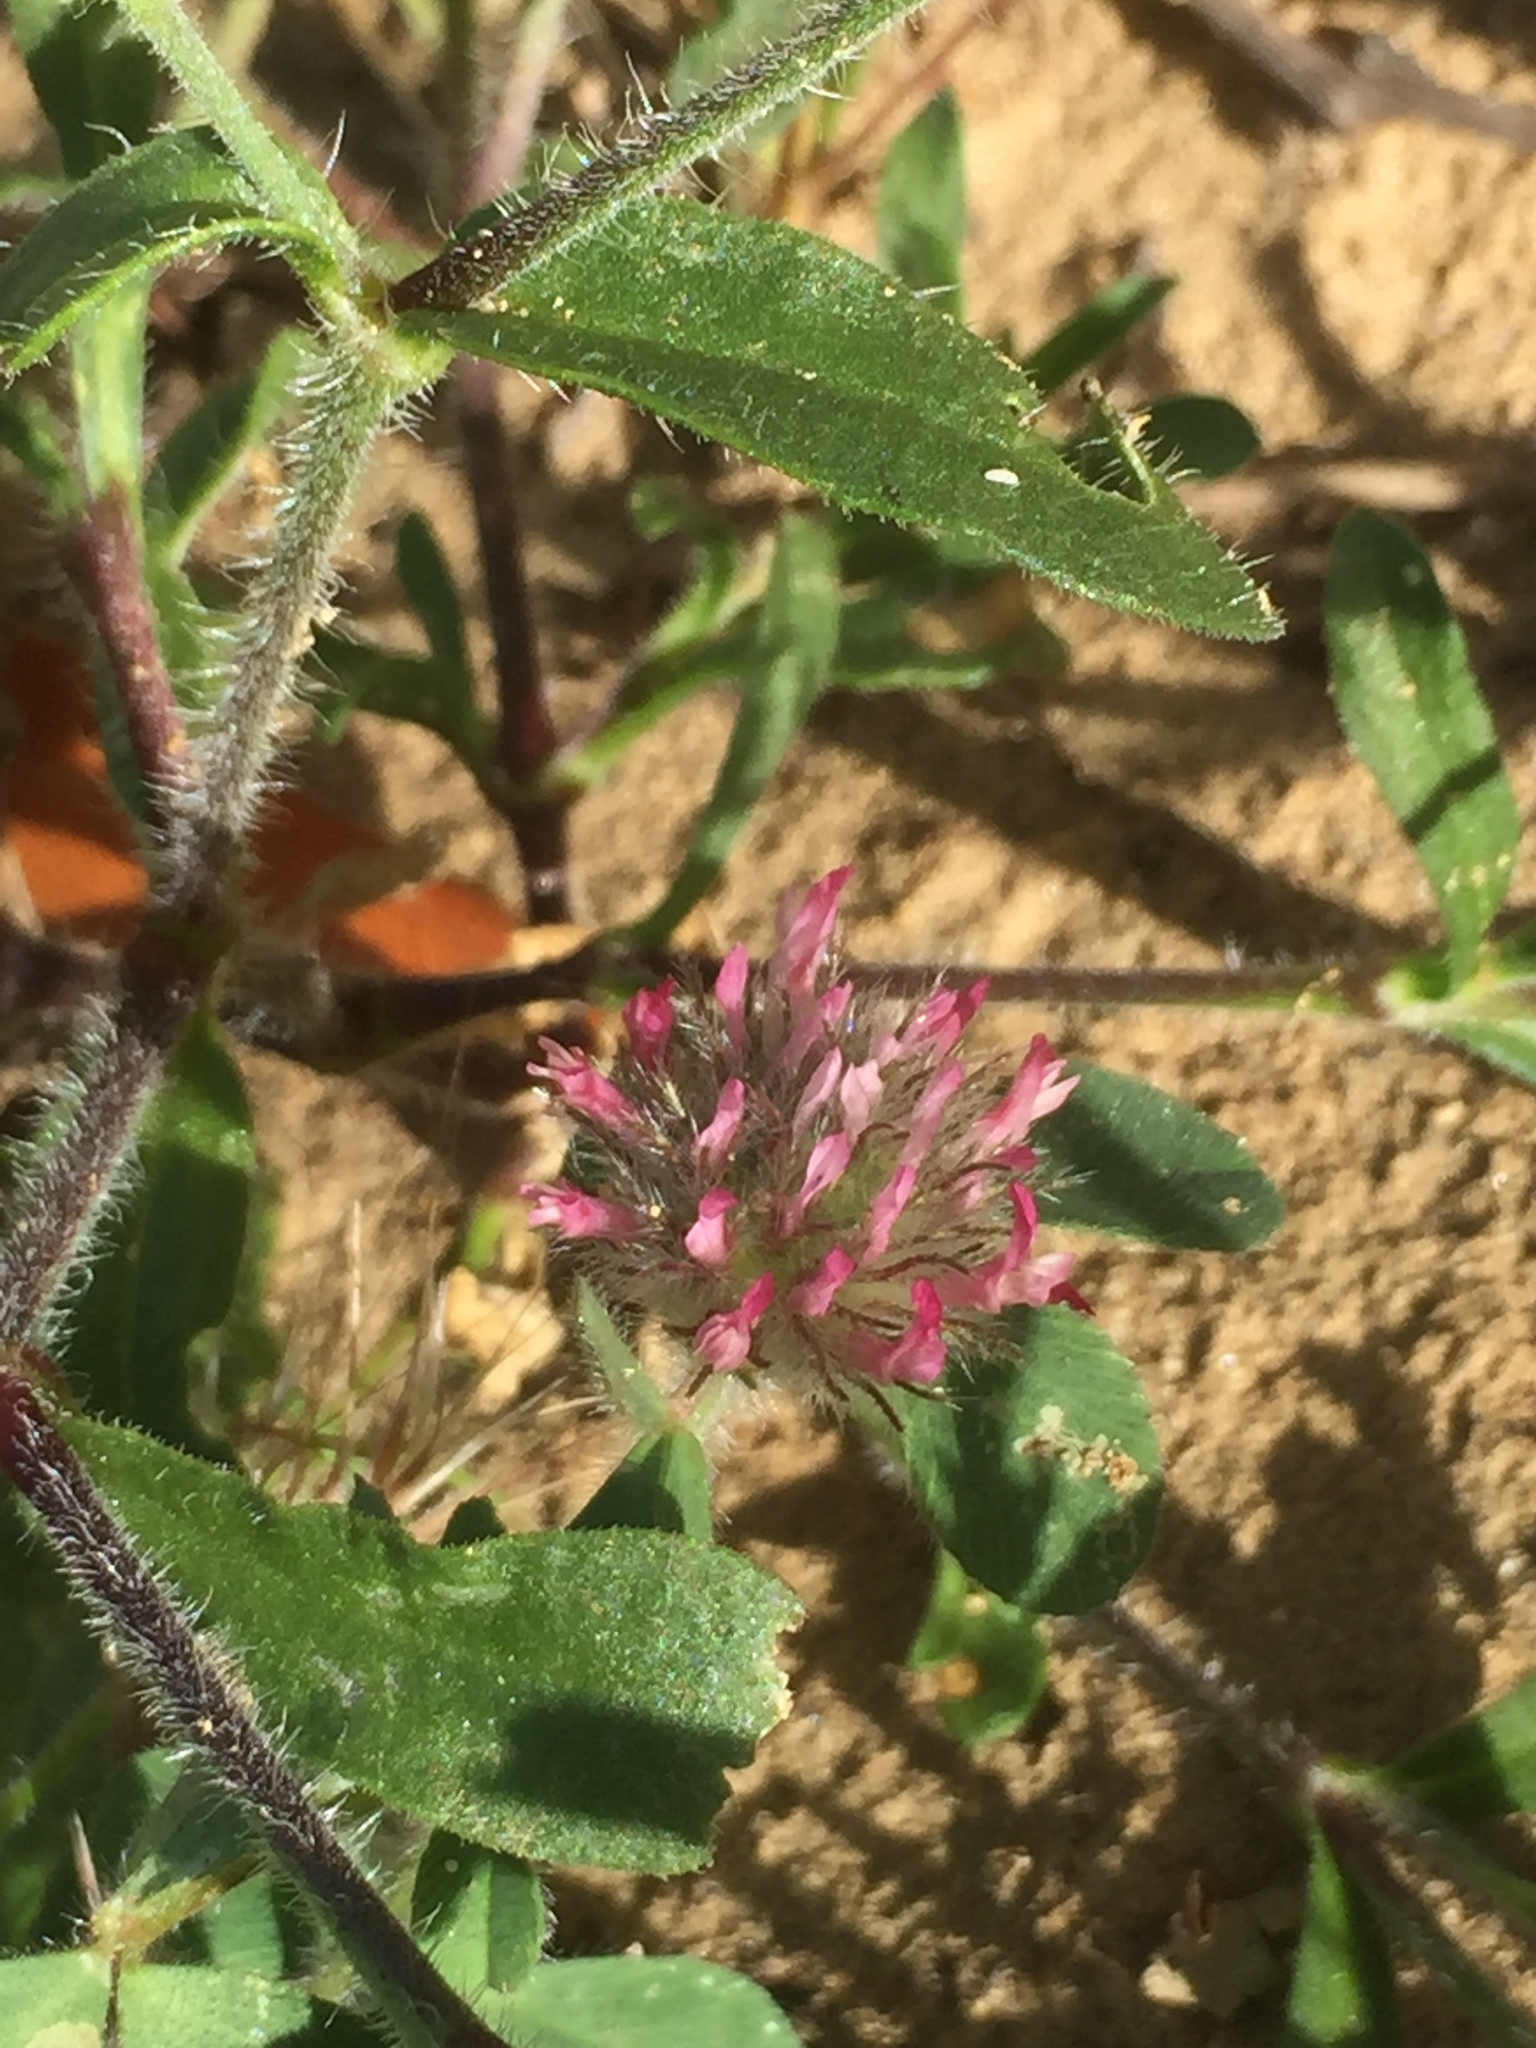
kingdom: Plantae
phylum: Tracheophyta
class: Magnoliopsida
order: Fabales
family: Fabaceae
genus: Trifolium
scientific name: Trifolium hirtum
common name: Rose clover
